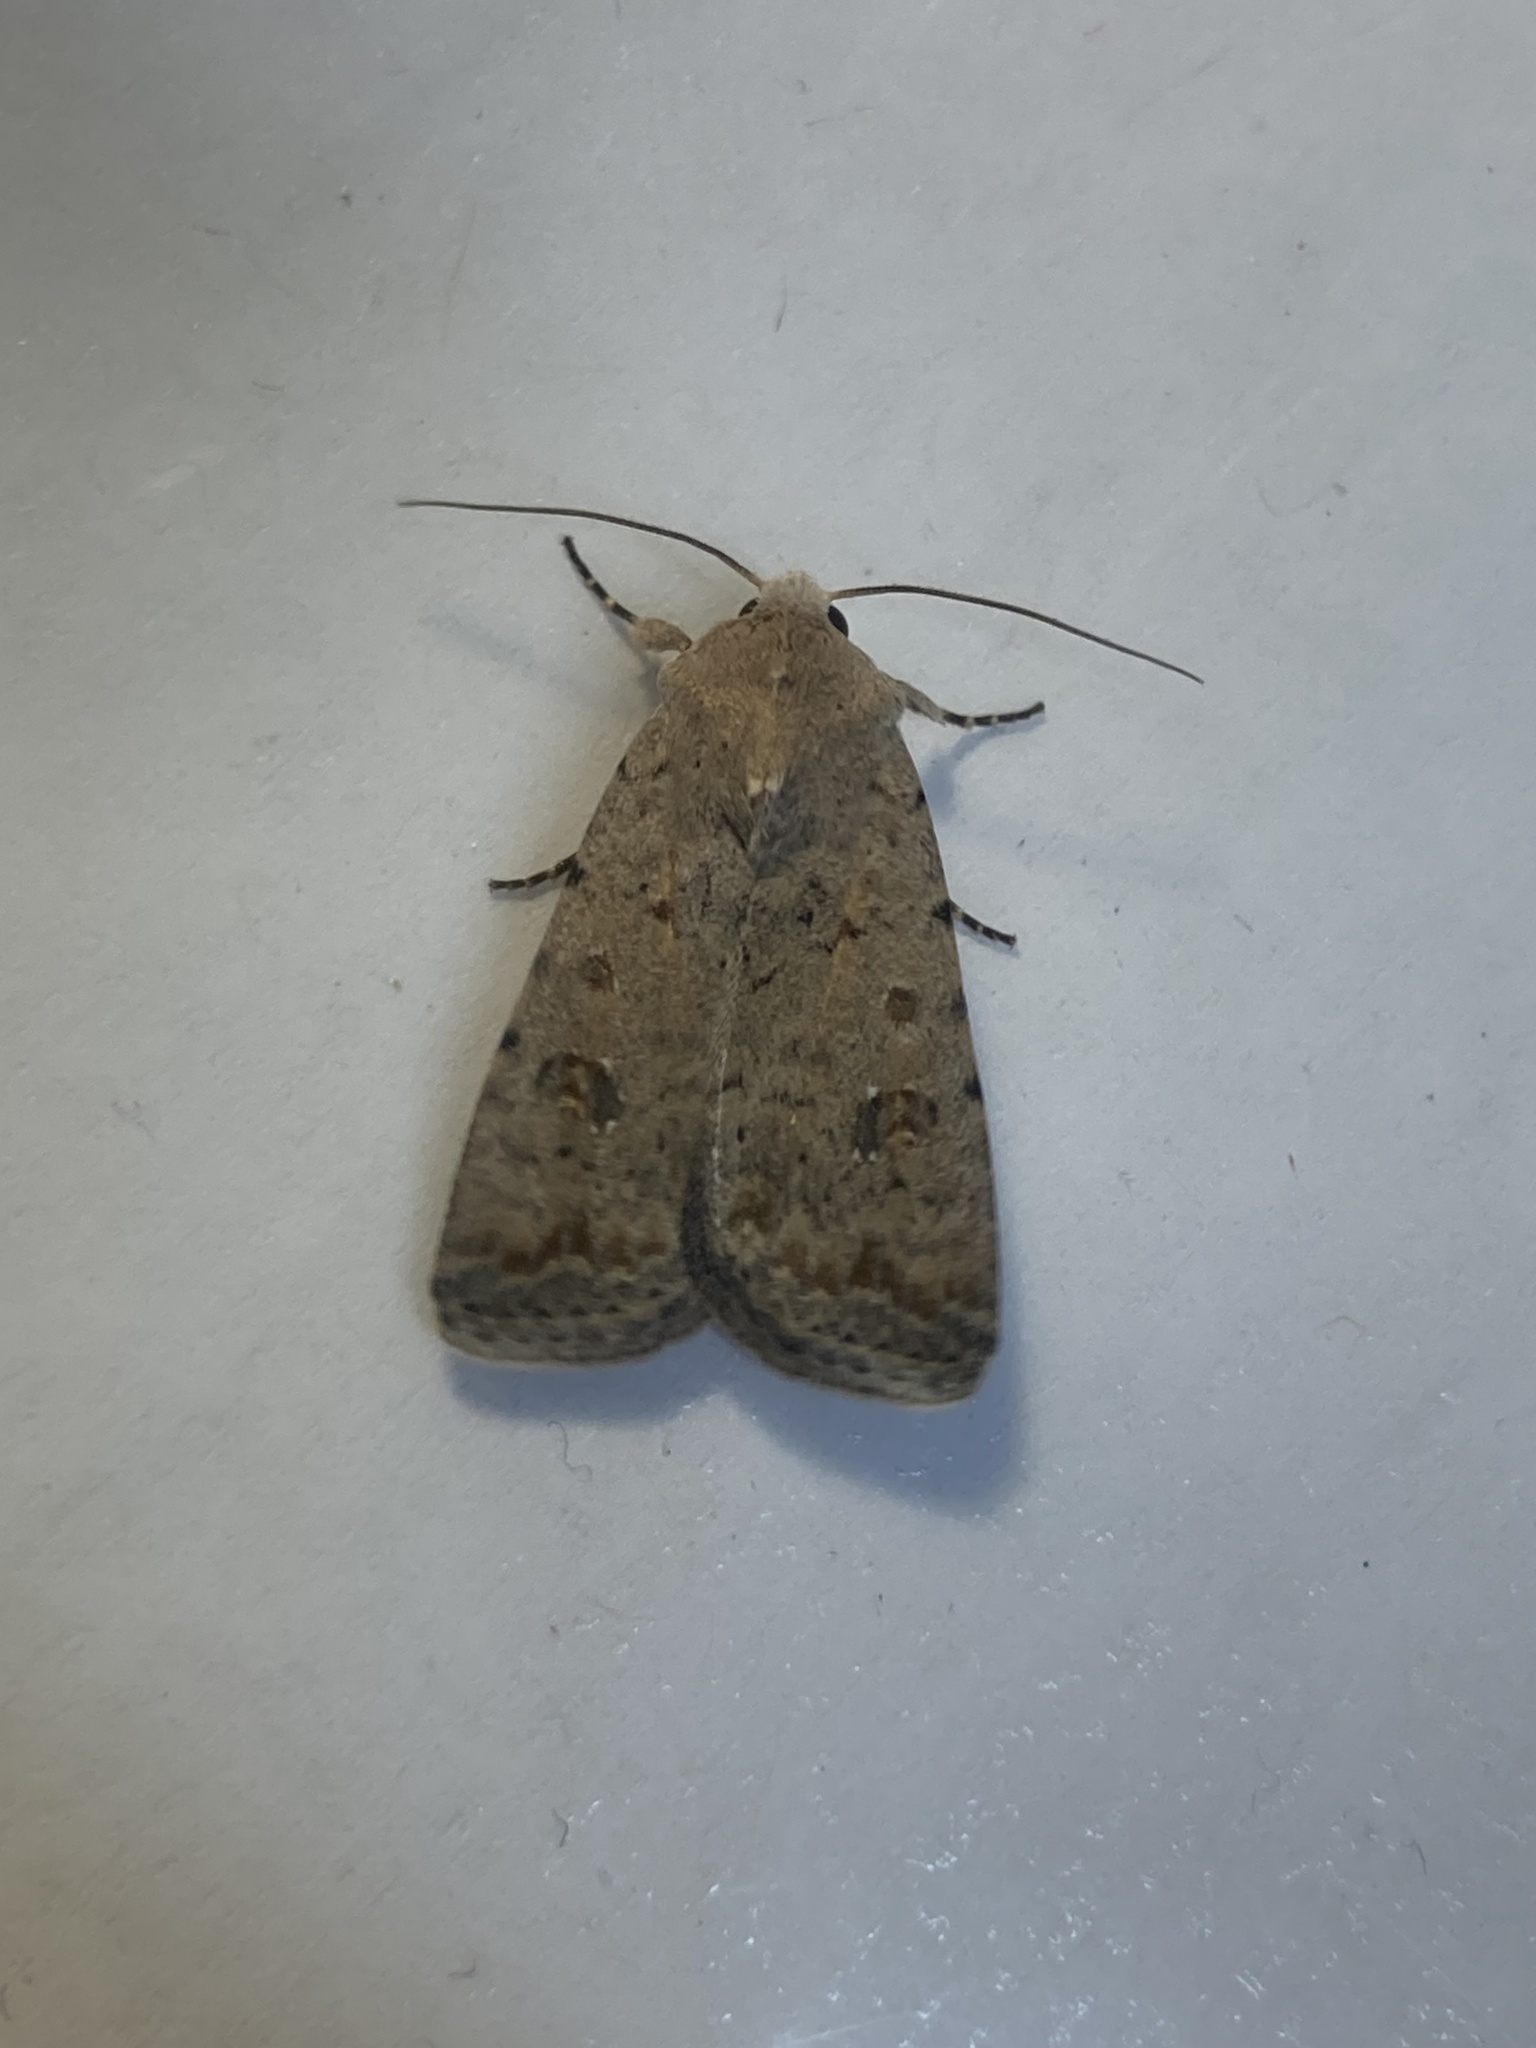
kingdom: Animalia
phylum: Arthropoda
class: Insecta
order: Lepidoptera
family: Noctuidae
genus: Caradrina
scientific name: Caradrina clavipalpis
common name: Pale mottled willow
